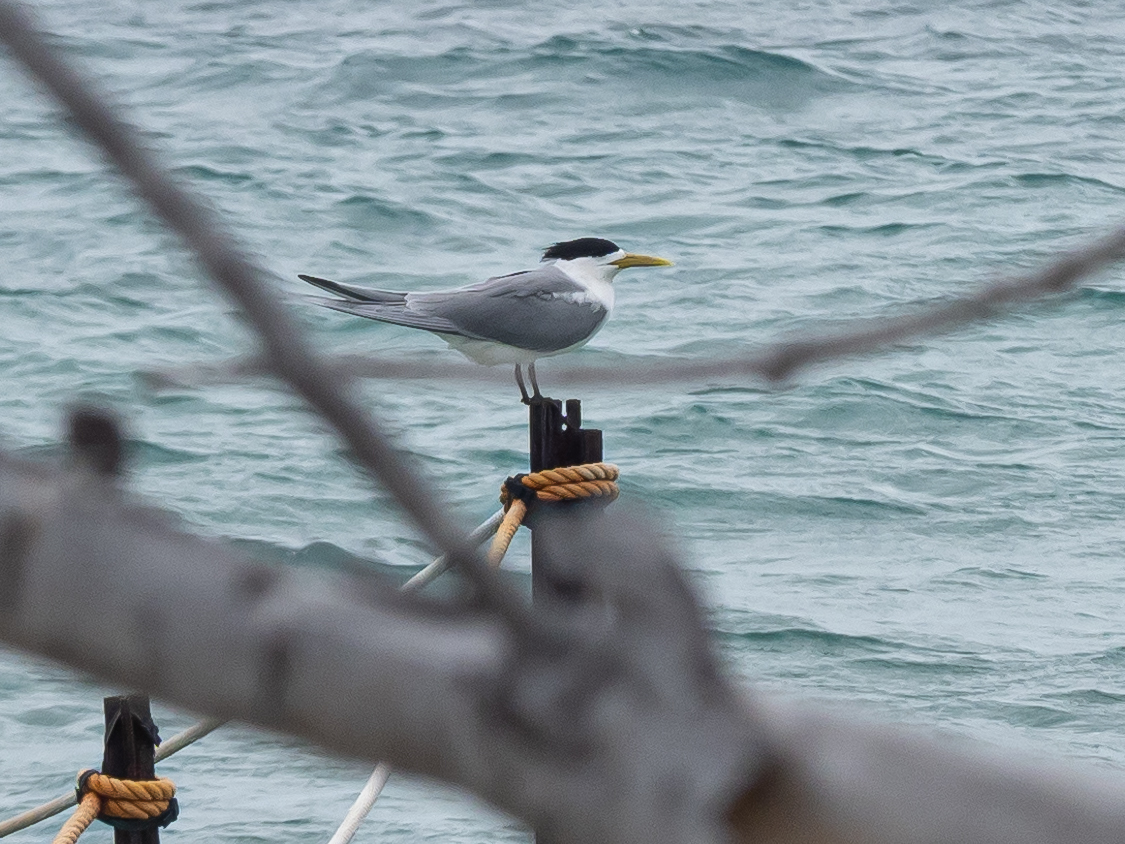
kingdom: Animalia
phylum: Chordata
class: Aves
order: Charadriiformes
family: Laridae
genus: Thalasseus
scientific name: Thalasseus bergii
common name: Greater crested tern
